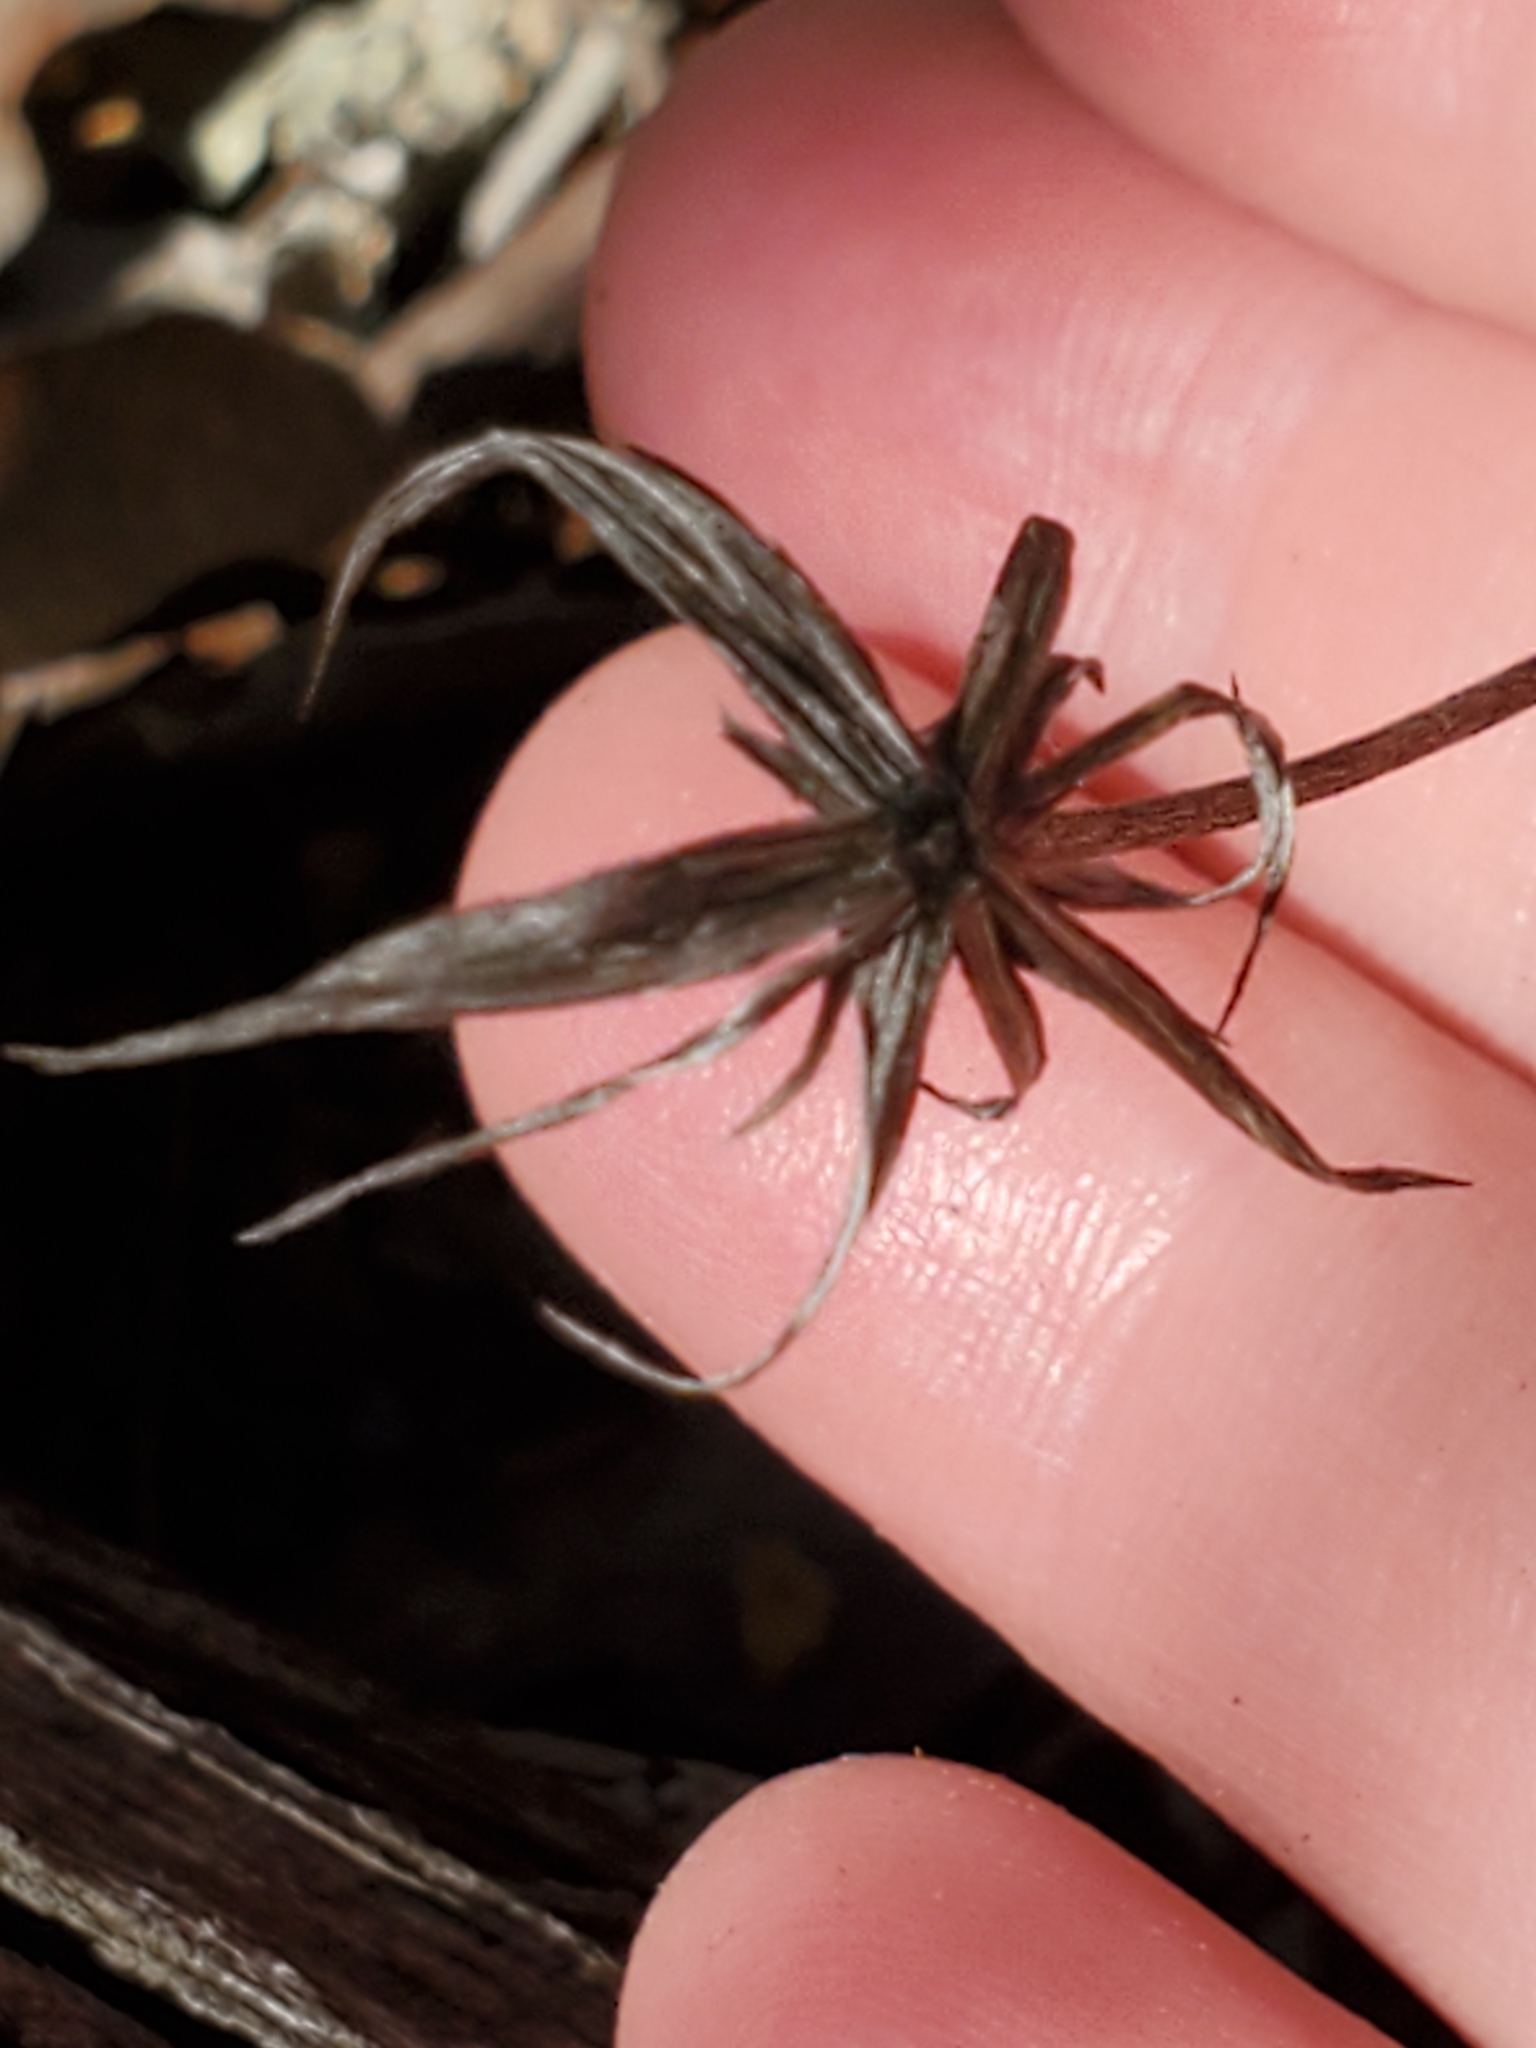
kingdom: Plantae
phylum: Tracheophyta
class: Magnoliopsida
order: Asterales
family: Asteraceae
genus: Chaptalia
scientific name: Chaptalia texana
